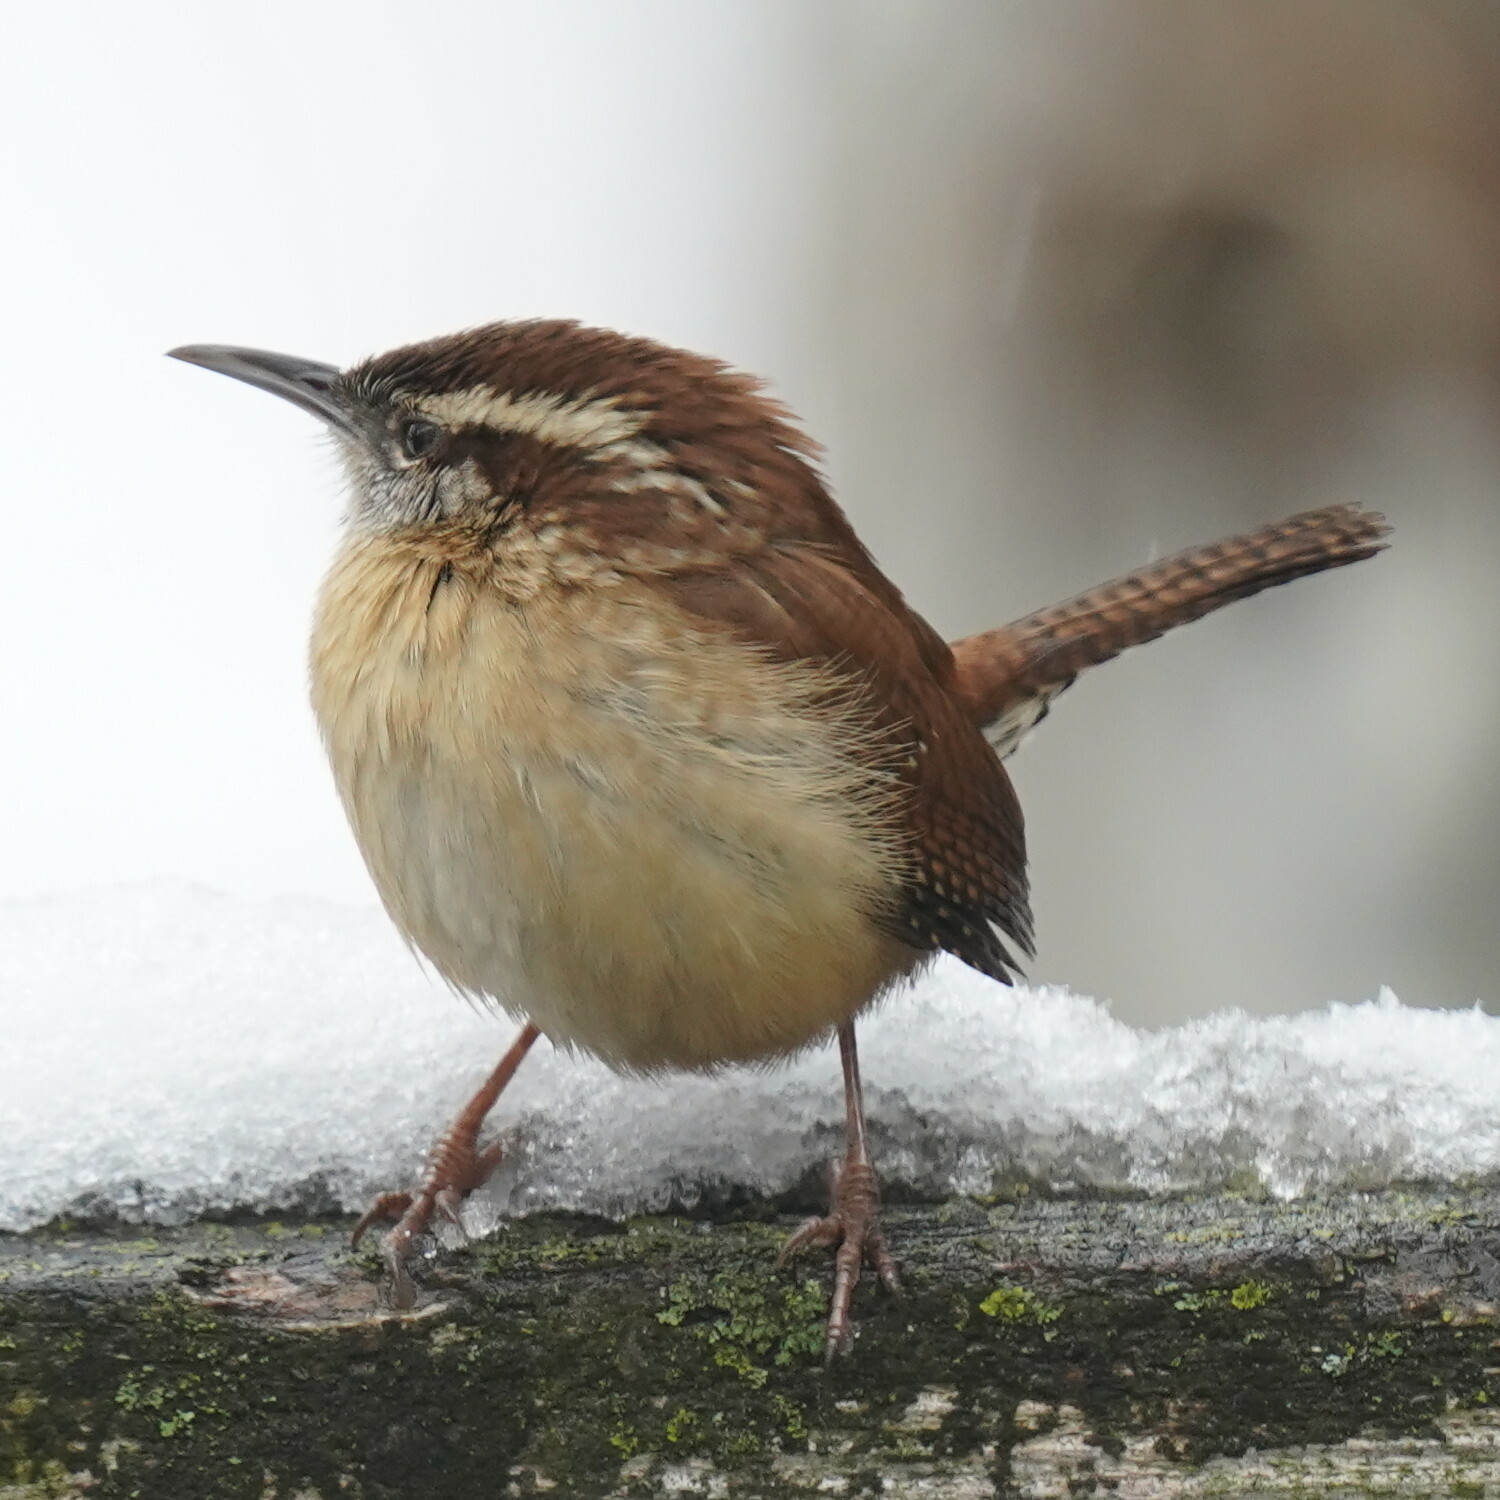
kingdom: Animalia
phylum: Chordata
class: Aves
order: Passeriformes
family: Troglodytidae
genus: Thryothorus
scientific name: Thryothorus ludovicianus
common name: Carolina wren
